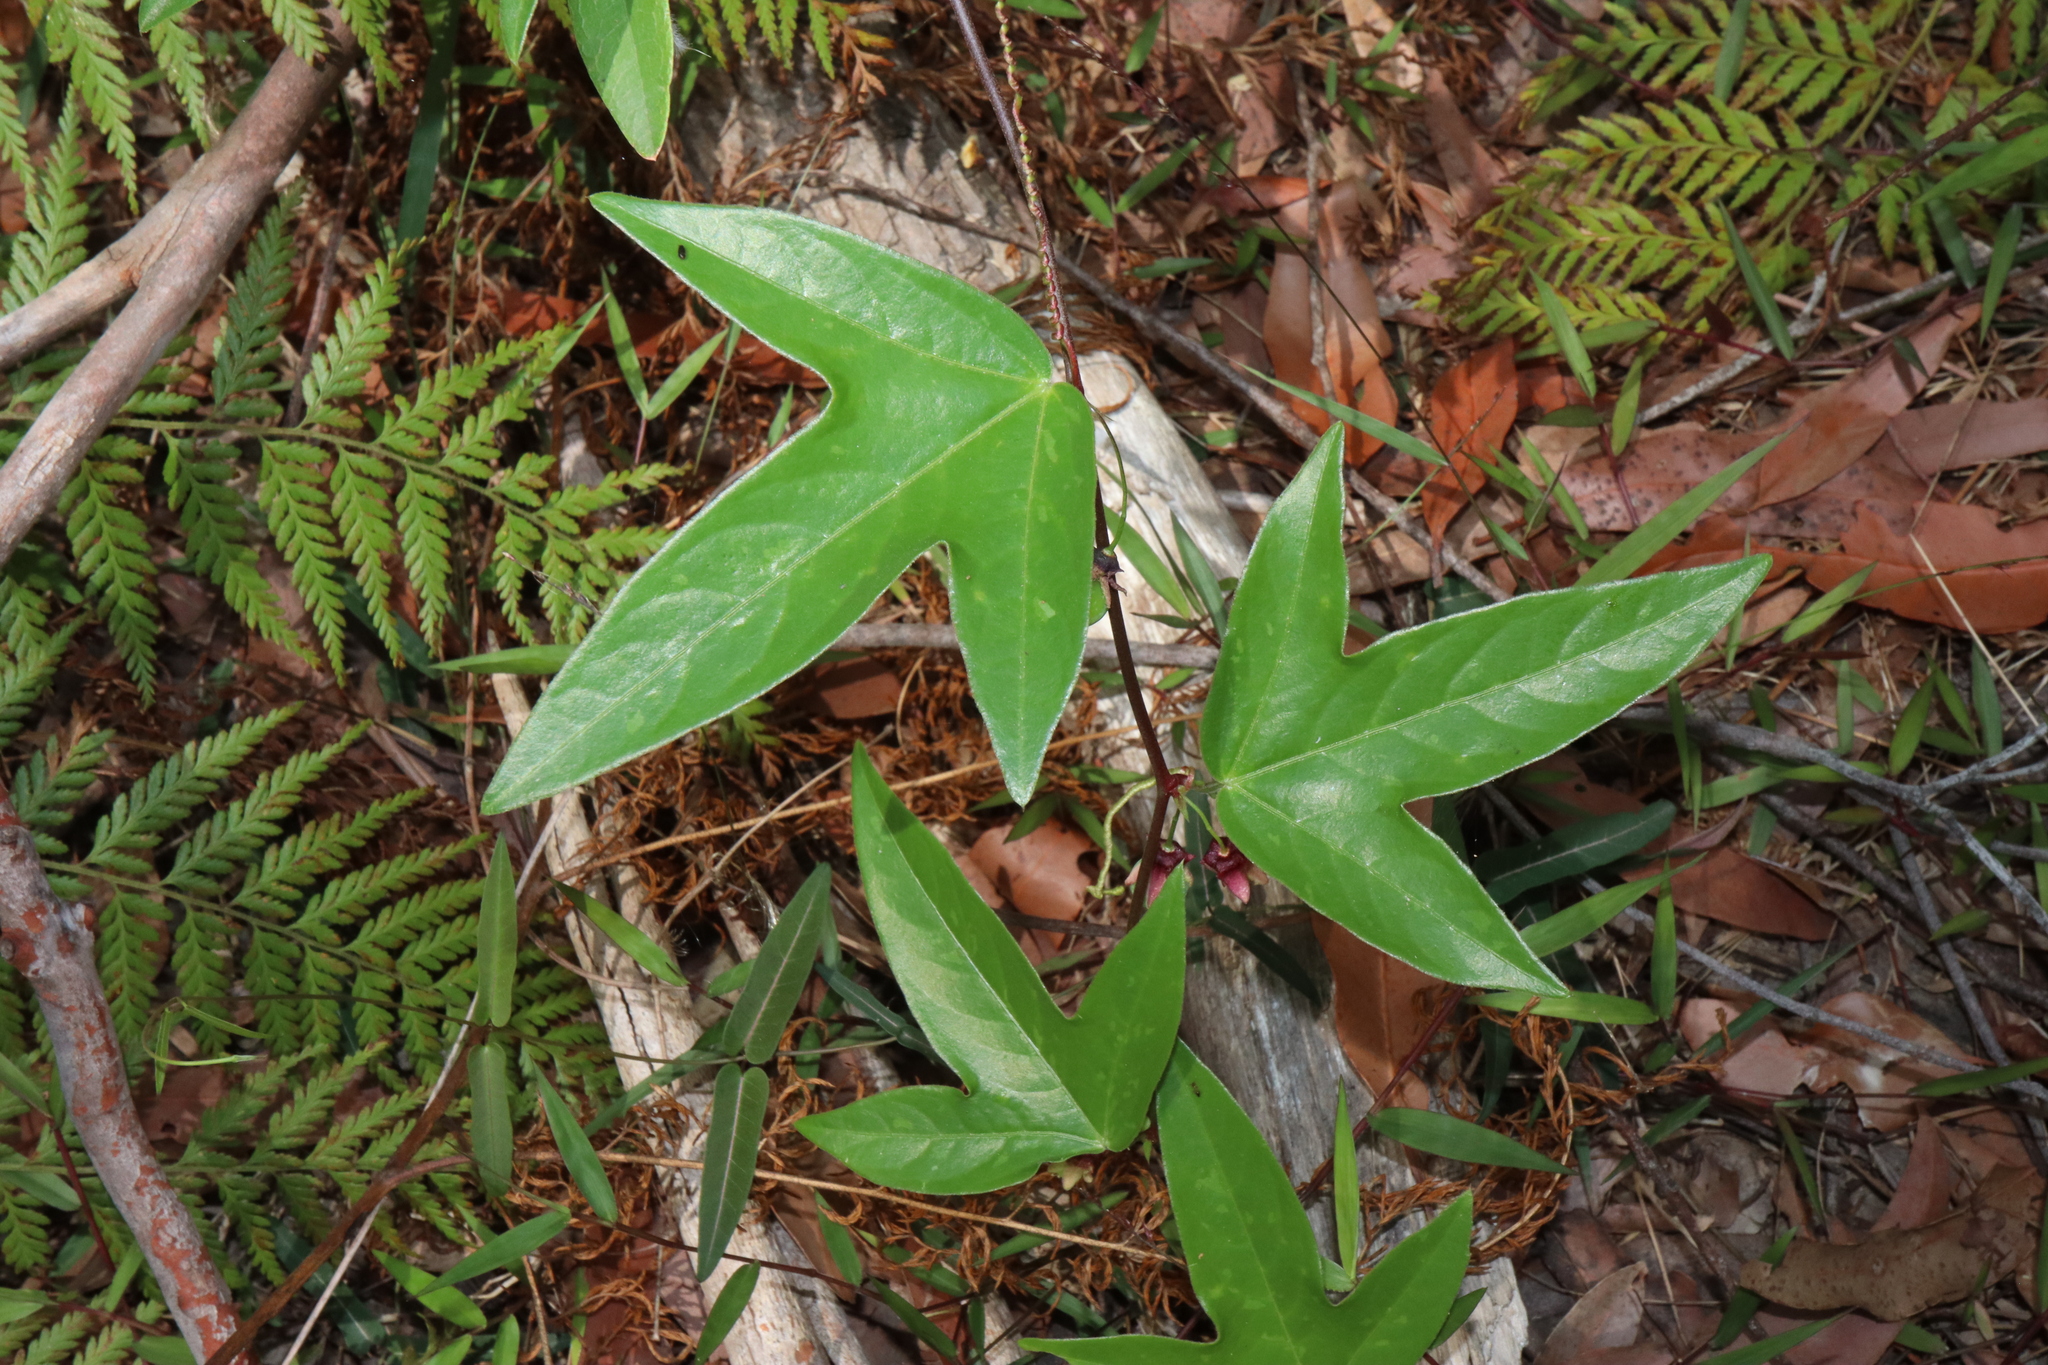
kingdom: Plantae
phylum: Tracheophyta
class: Magnoliopsida
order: Malpighiales
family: Passifloraceae
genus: Passiflora
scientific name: Passiflora suberosa
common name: Wild passionfruit
